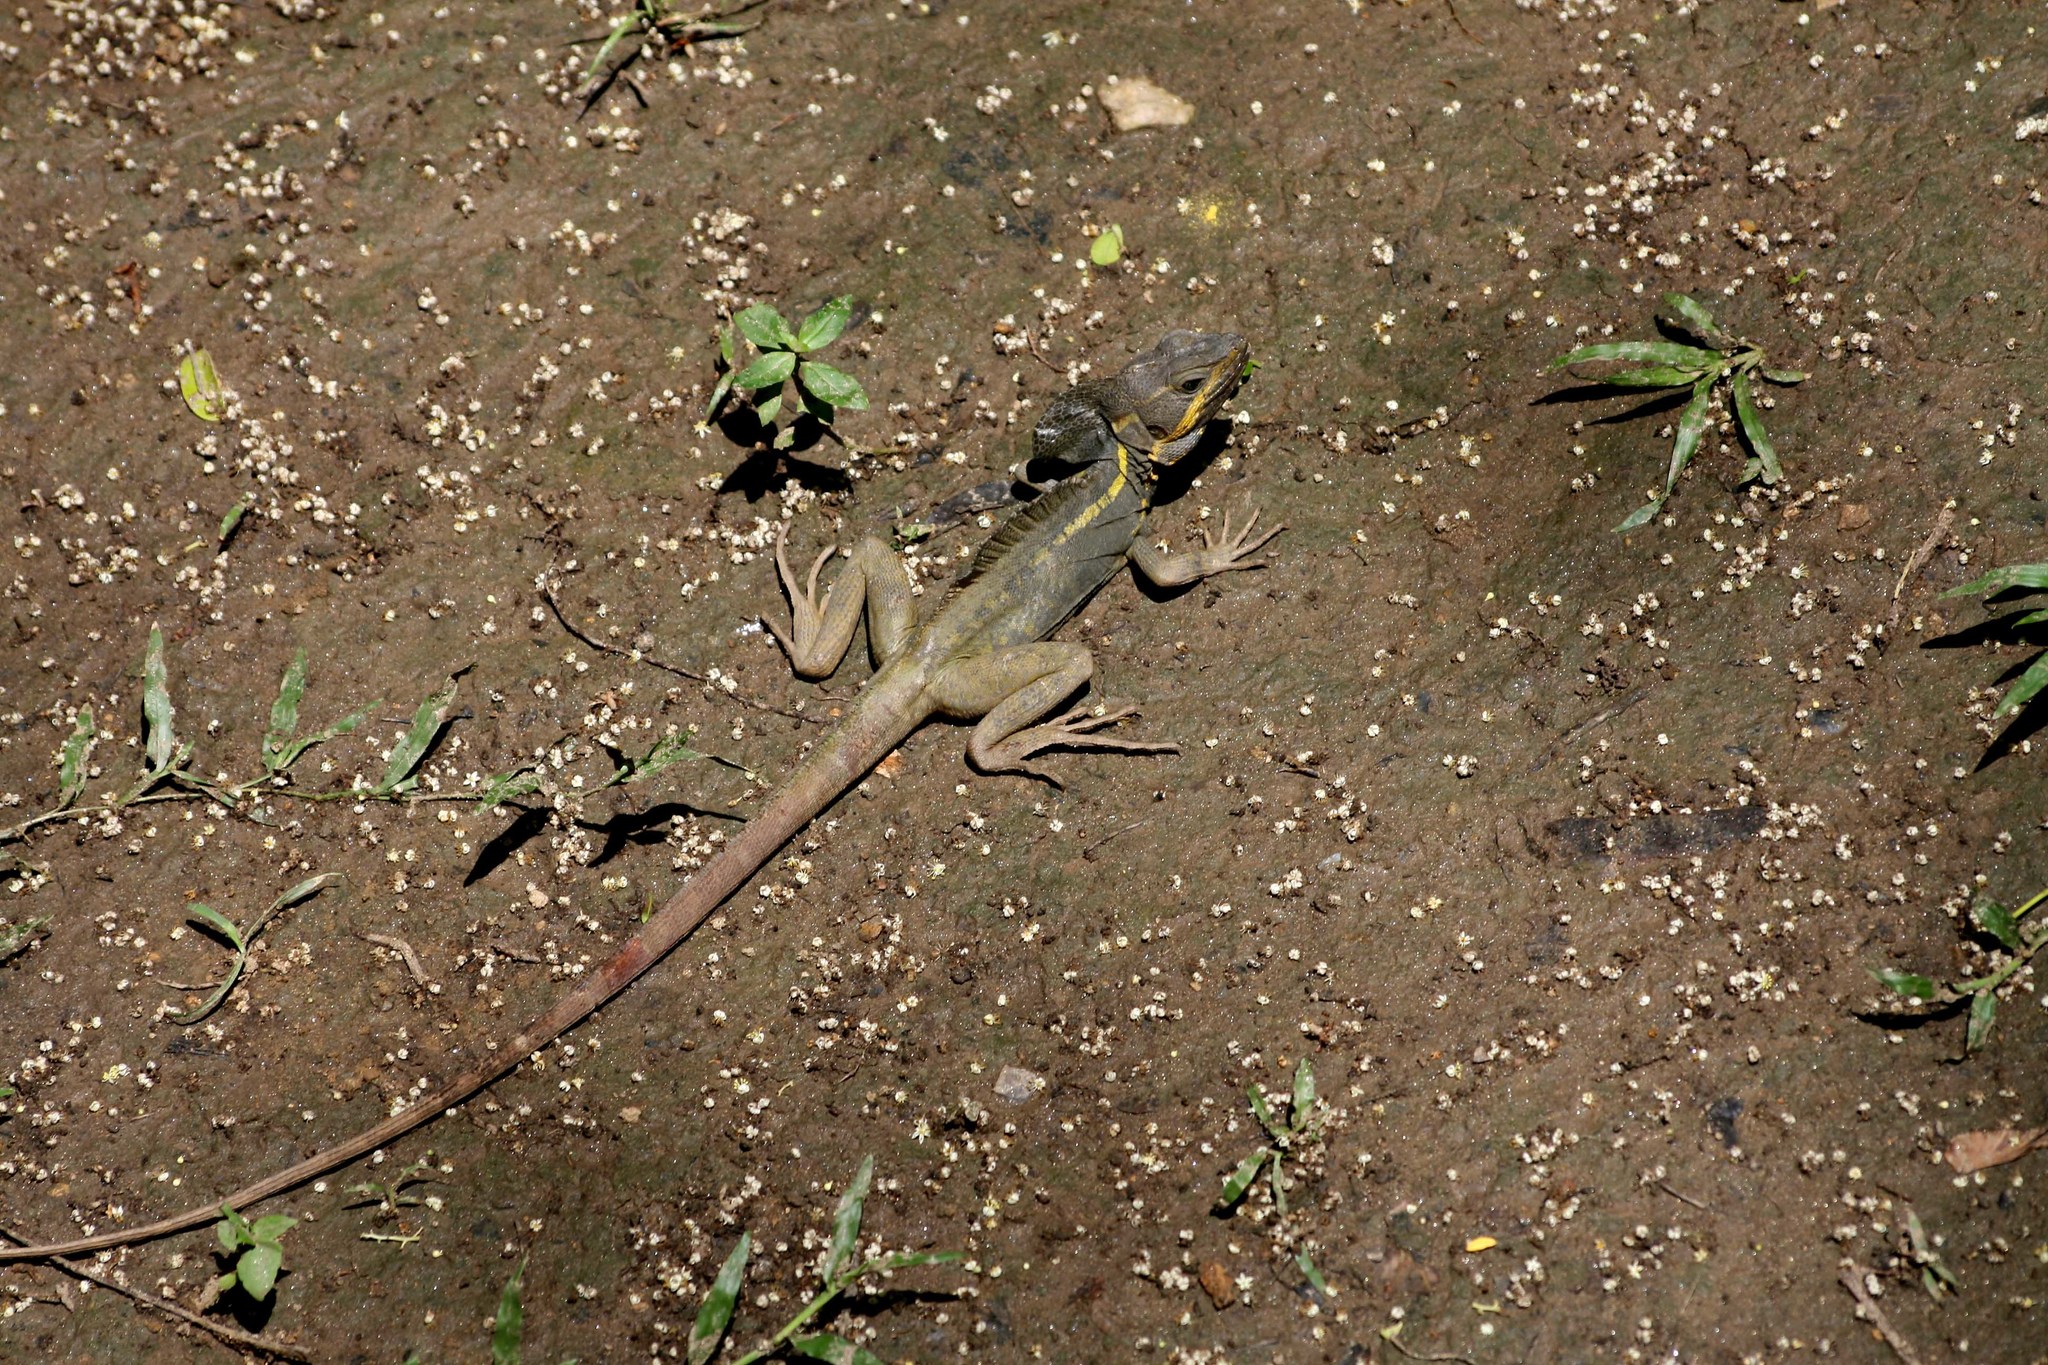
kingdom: Animalia
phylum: Chordata
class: Squamata
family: Corytophanidae
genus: Basiliscus
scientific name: Basiliscus vittatus
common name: Brown basilisk
